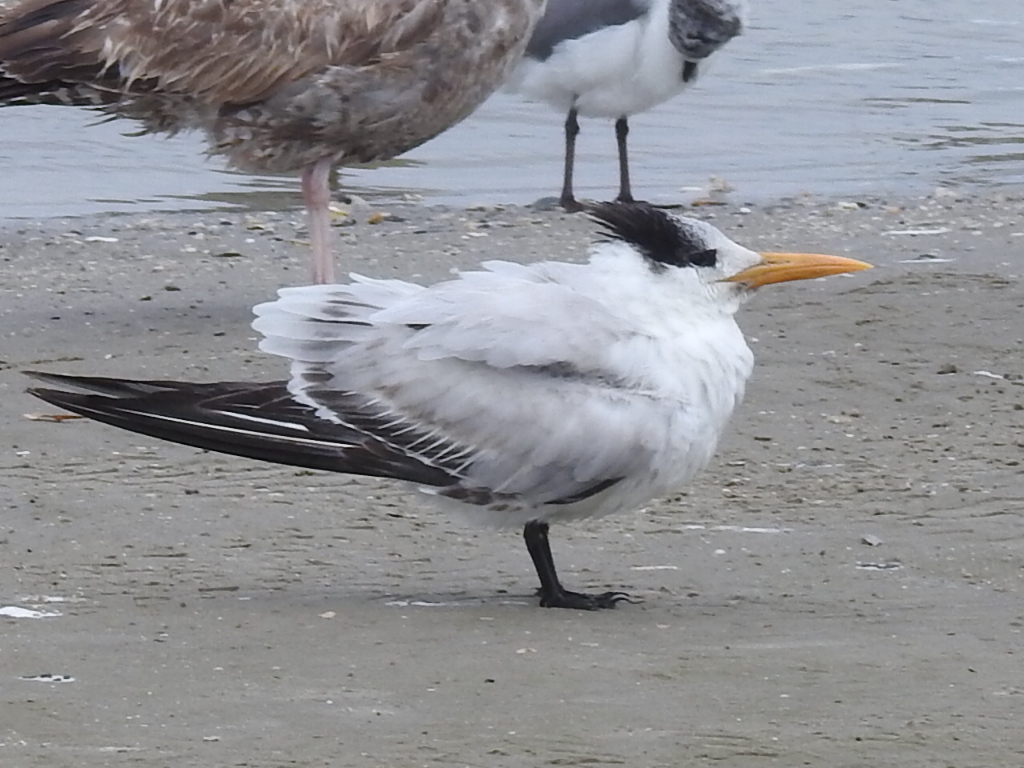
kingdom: Animalia
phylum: Chordata
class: Aves
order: Charadriiformes
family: Laridae
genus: Thalasseus
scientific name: Thalasseus maximus
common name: Royal tern
